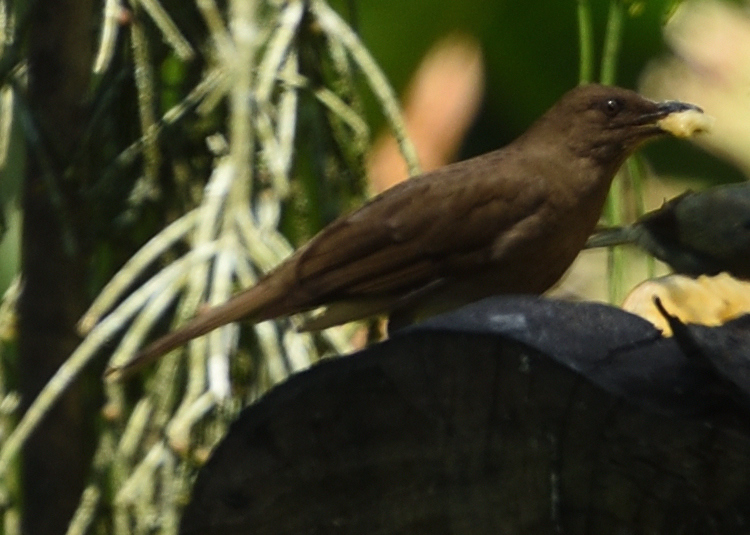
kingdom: Animalia
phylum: Chordata
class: Aves
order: Passeriformes
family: Turdidae
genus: Turdus
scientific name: Turdus ignobilis
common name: Black-billed thrush
